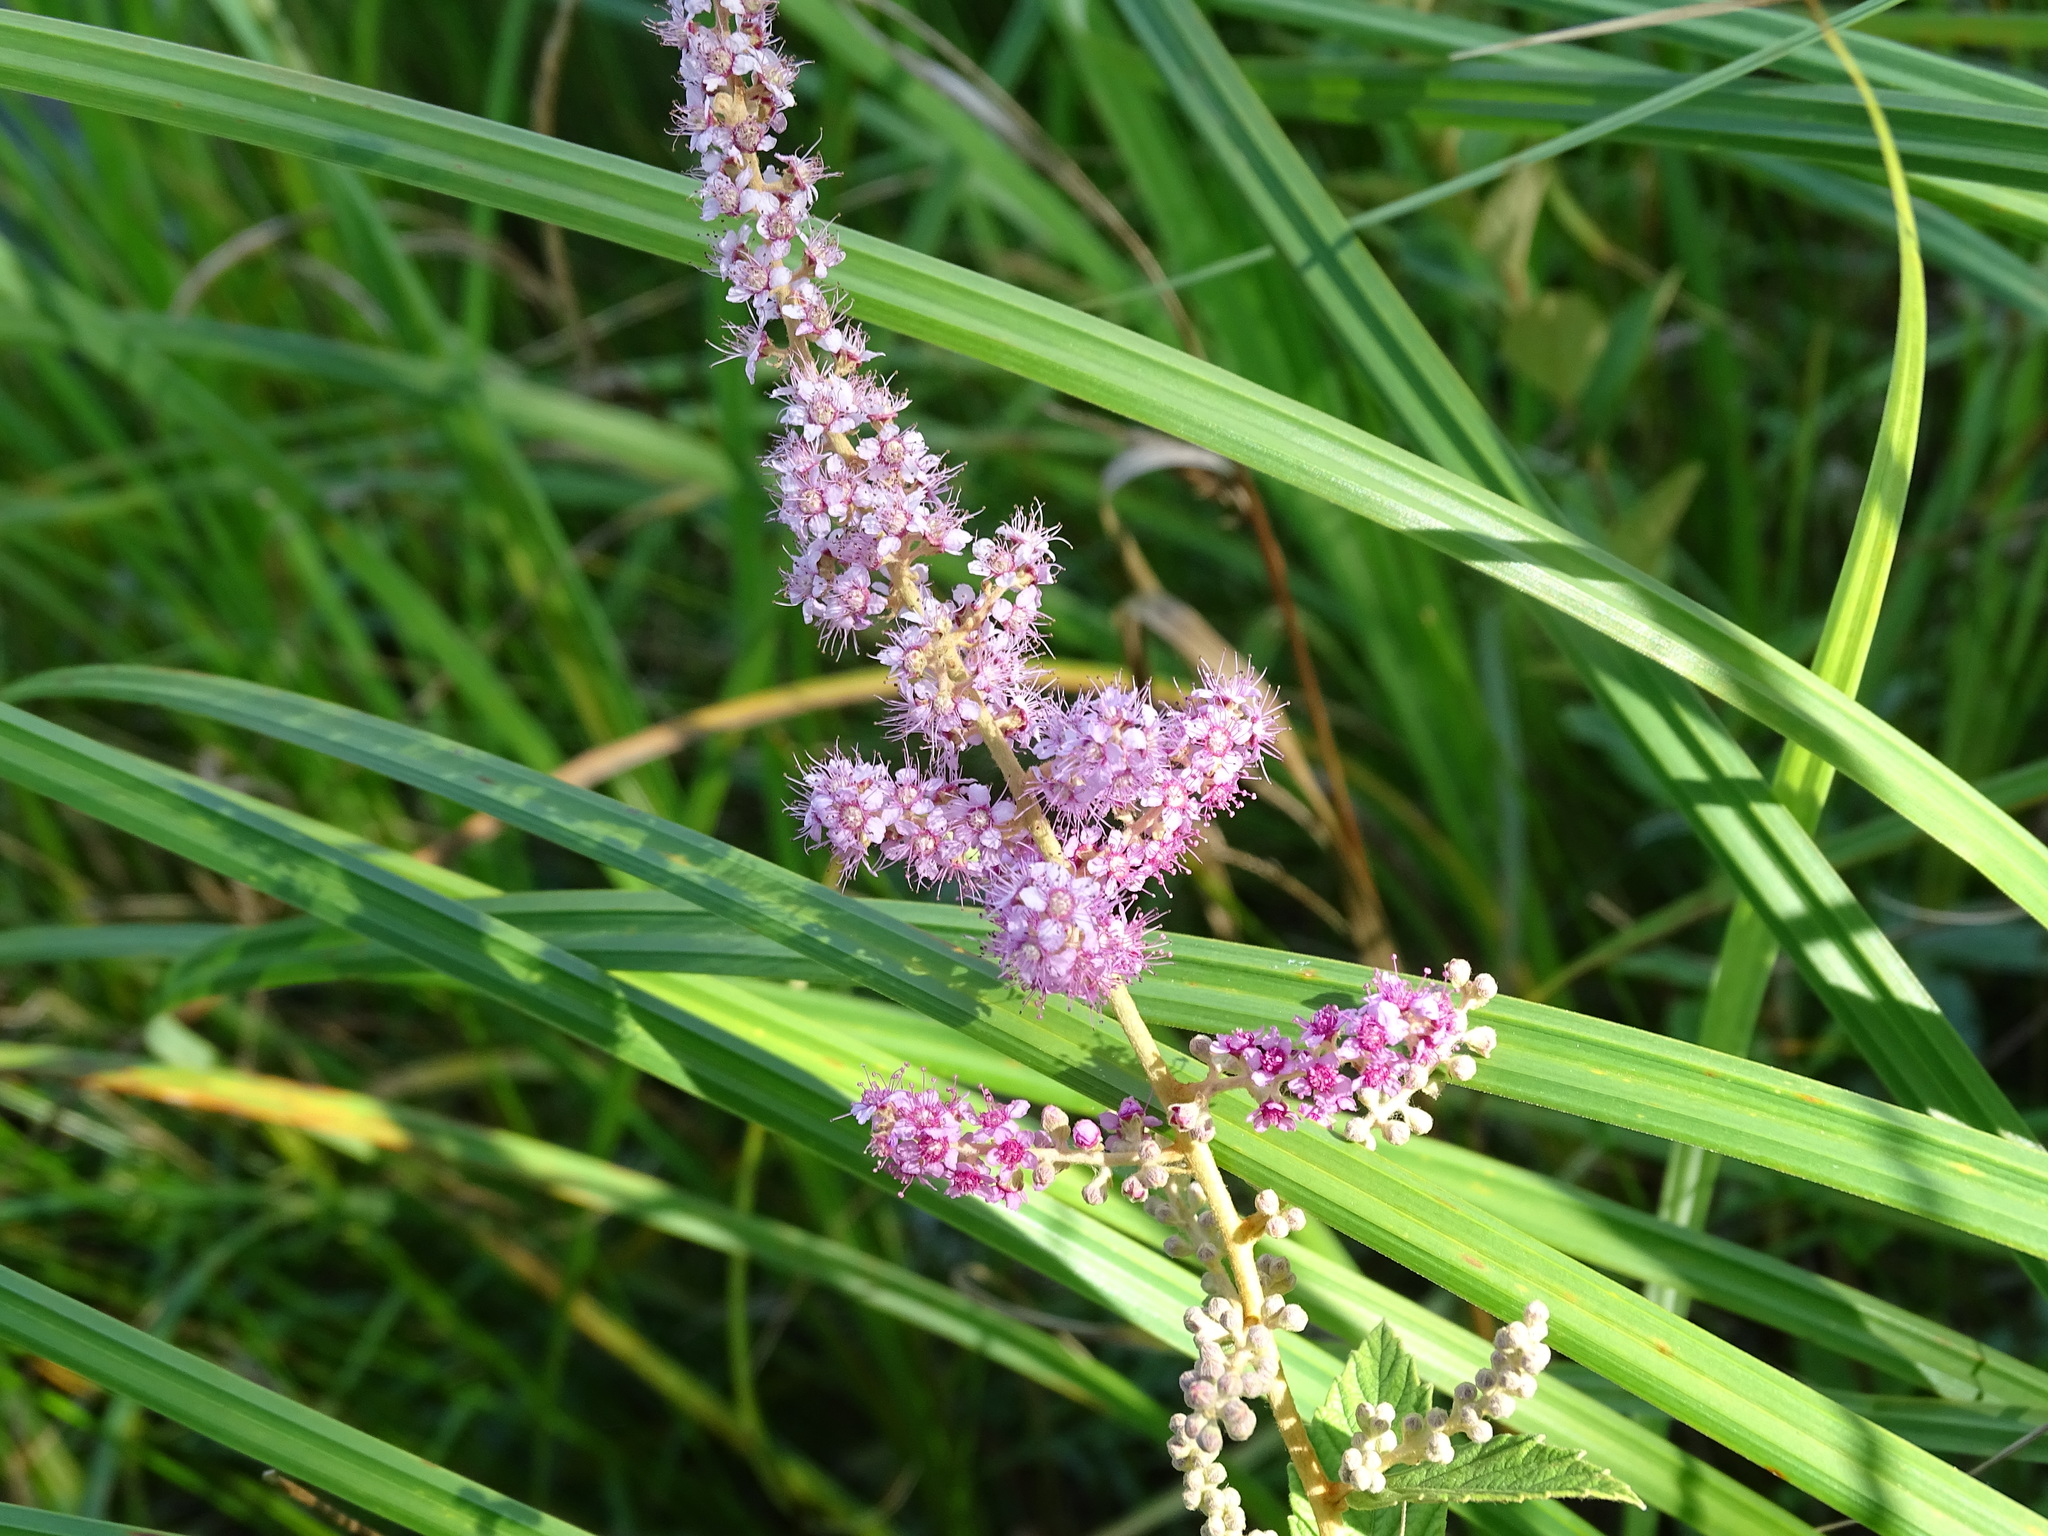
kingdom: Plantae
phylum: Tracheophyta
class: Magnoliopsida
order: Rosales
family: Rosaceae
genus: Spiraea
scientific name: Spiraea tomentosa
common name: Hardhack
